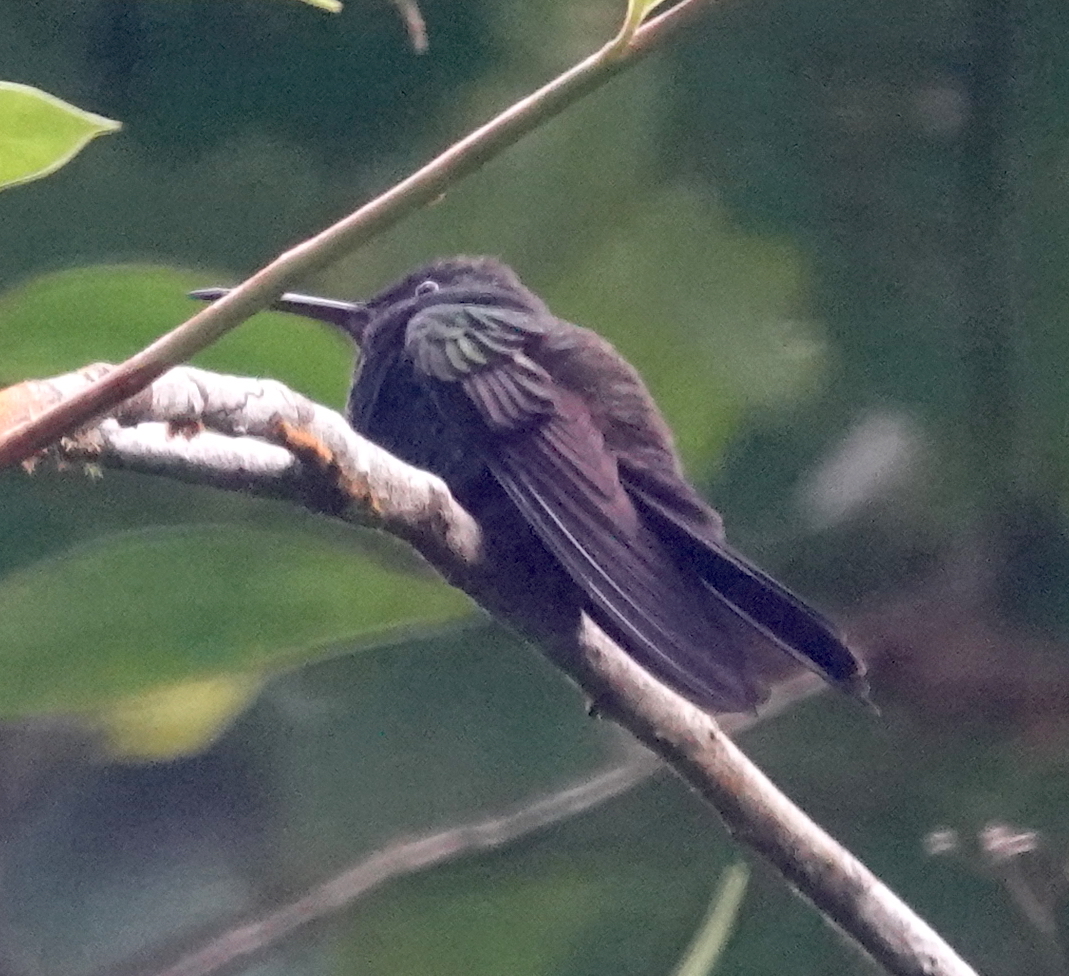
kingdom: Animalia
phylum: Chordata
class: Aves
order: Apodiformes
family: Trochilidae
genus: Chalybura
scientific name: Chalybura urochrysia
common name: Bronze-tailed plumeleteer
